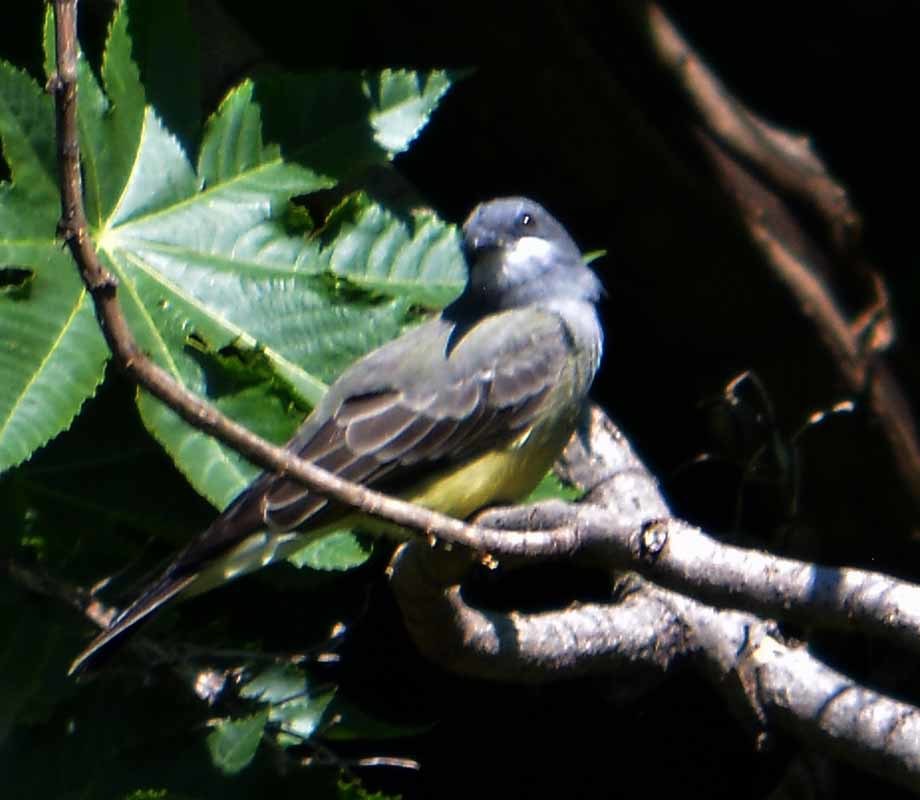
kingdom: Animalia
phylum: Chordata
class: Aves
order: Passeriformes
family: Tyrannidae
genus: Tyrannus
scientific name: Tyrannus vociferans
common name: Cassin's kingbird
